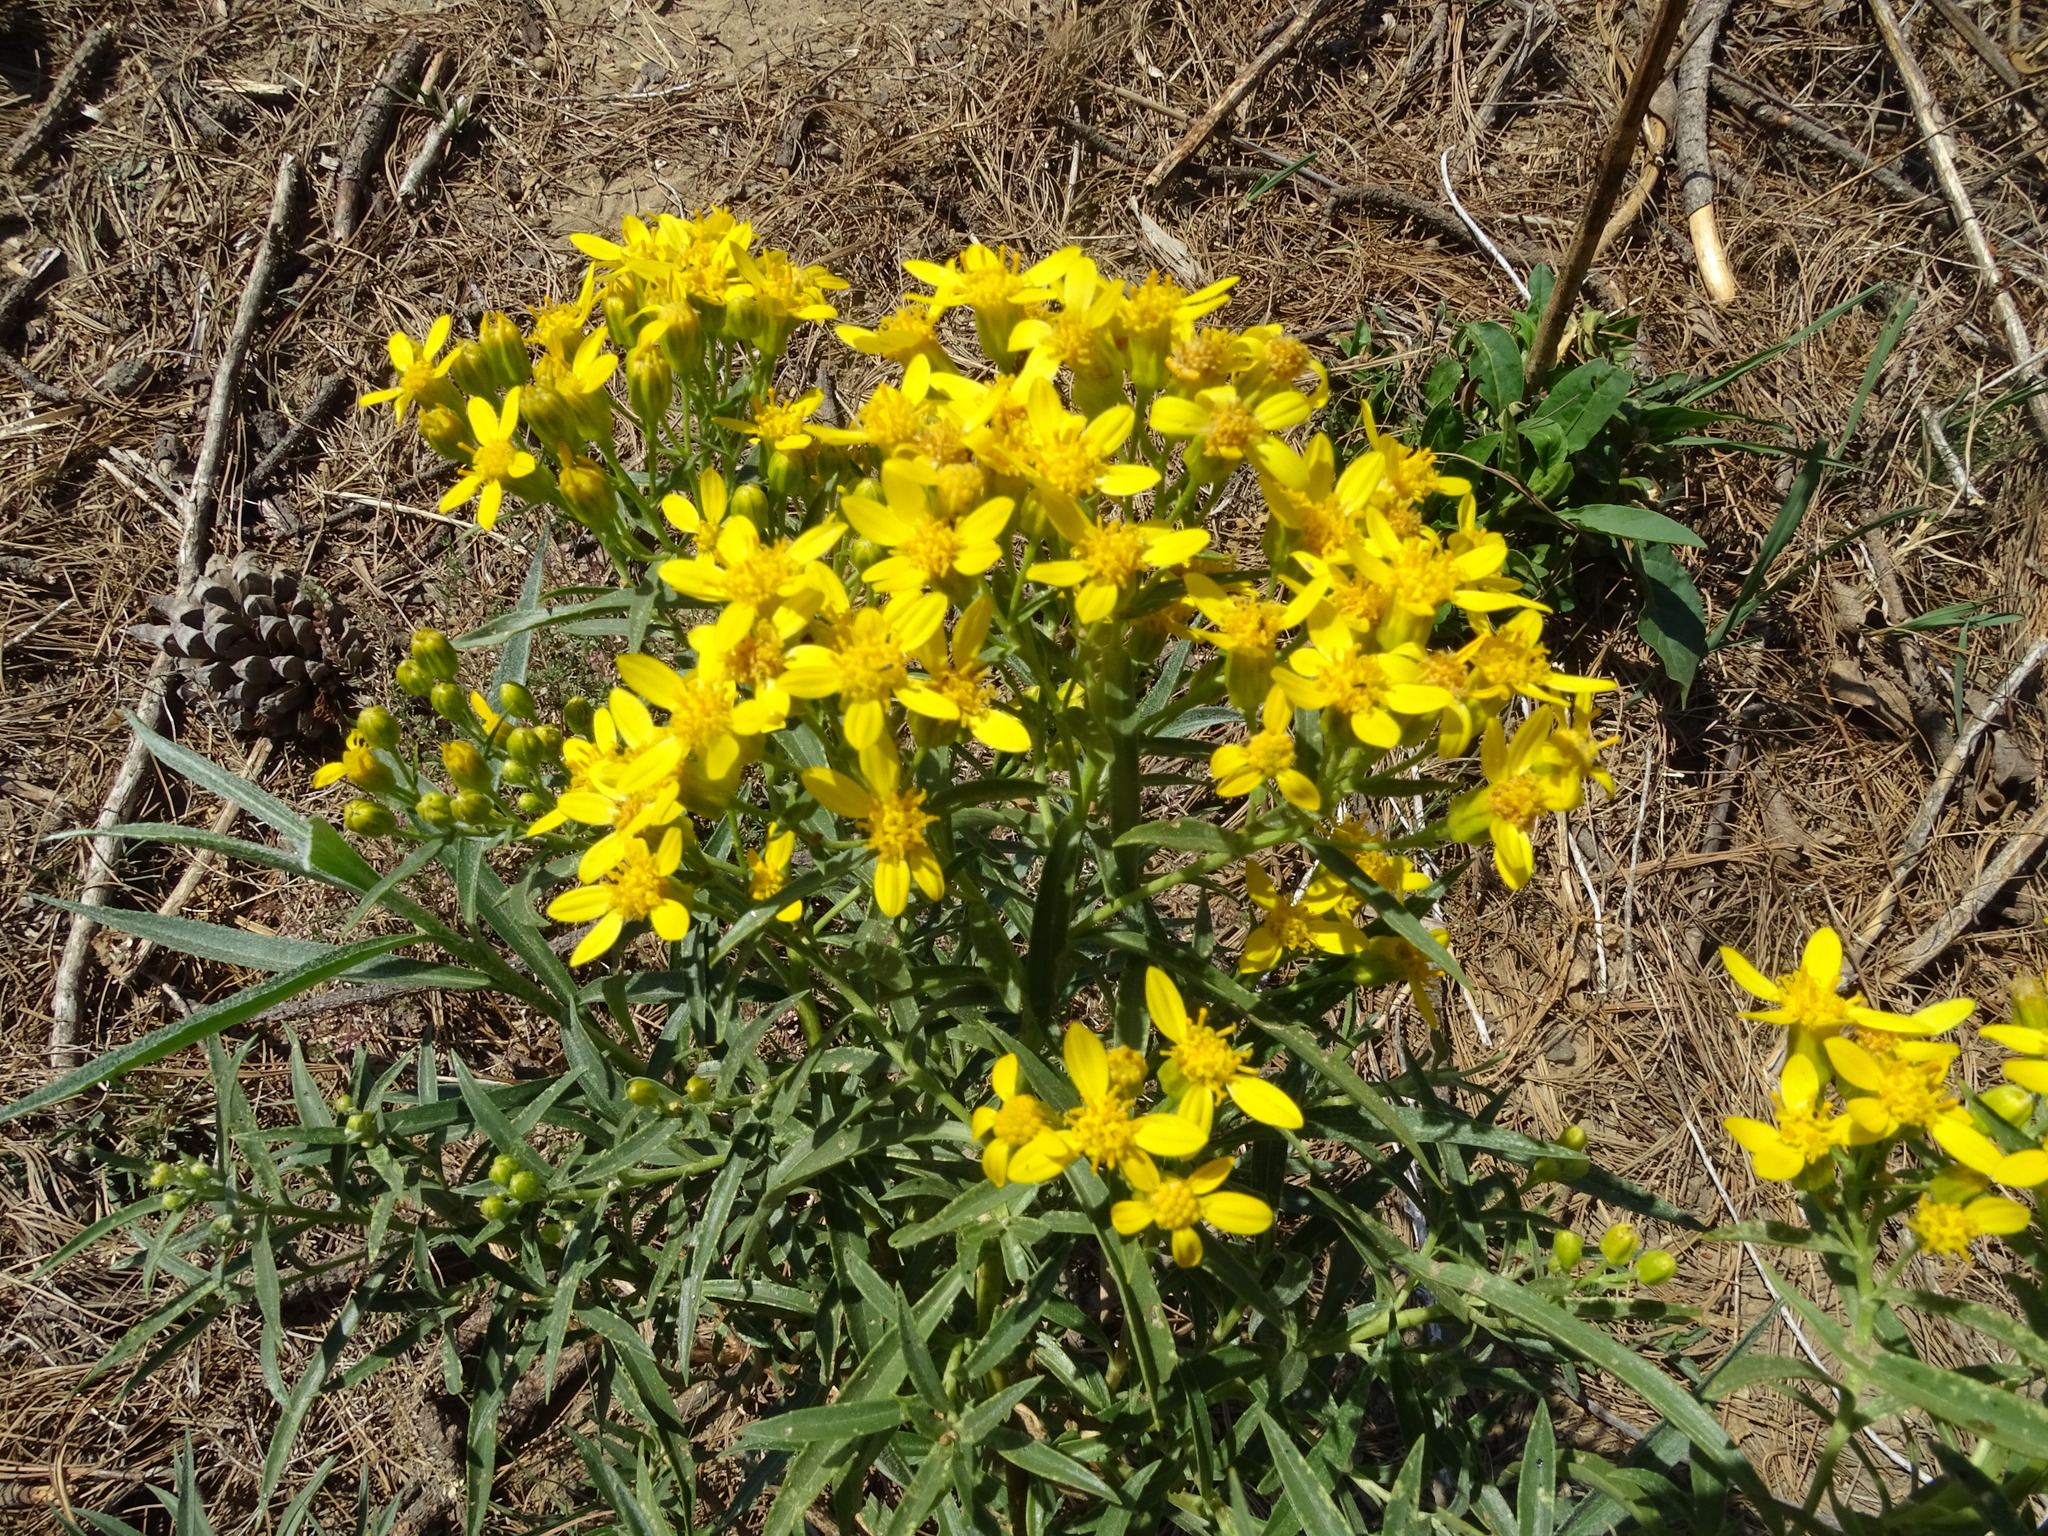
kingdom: Plantae
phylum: Tracheophyta
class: Magnoliopsida
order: Asterales
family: Asteraceae
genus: Barkleyanthus
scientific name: Barkleyanthus salicifolius
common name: Willow ragwort
